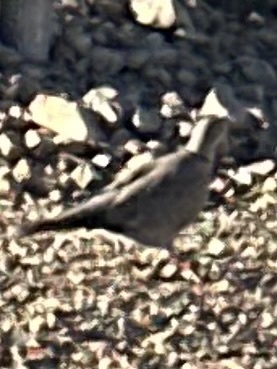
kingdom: Animalia
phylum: Chordata
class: Aves
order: Columbiformes
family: Columbidae
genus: Streptopelia
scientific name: Streptopelia decaocto
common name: Eurasian collared dove
